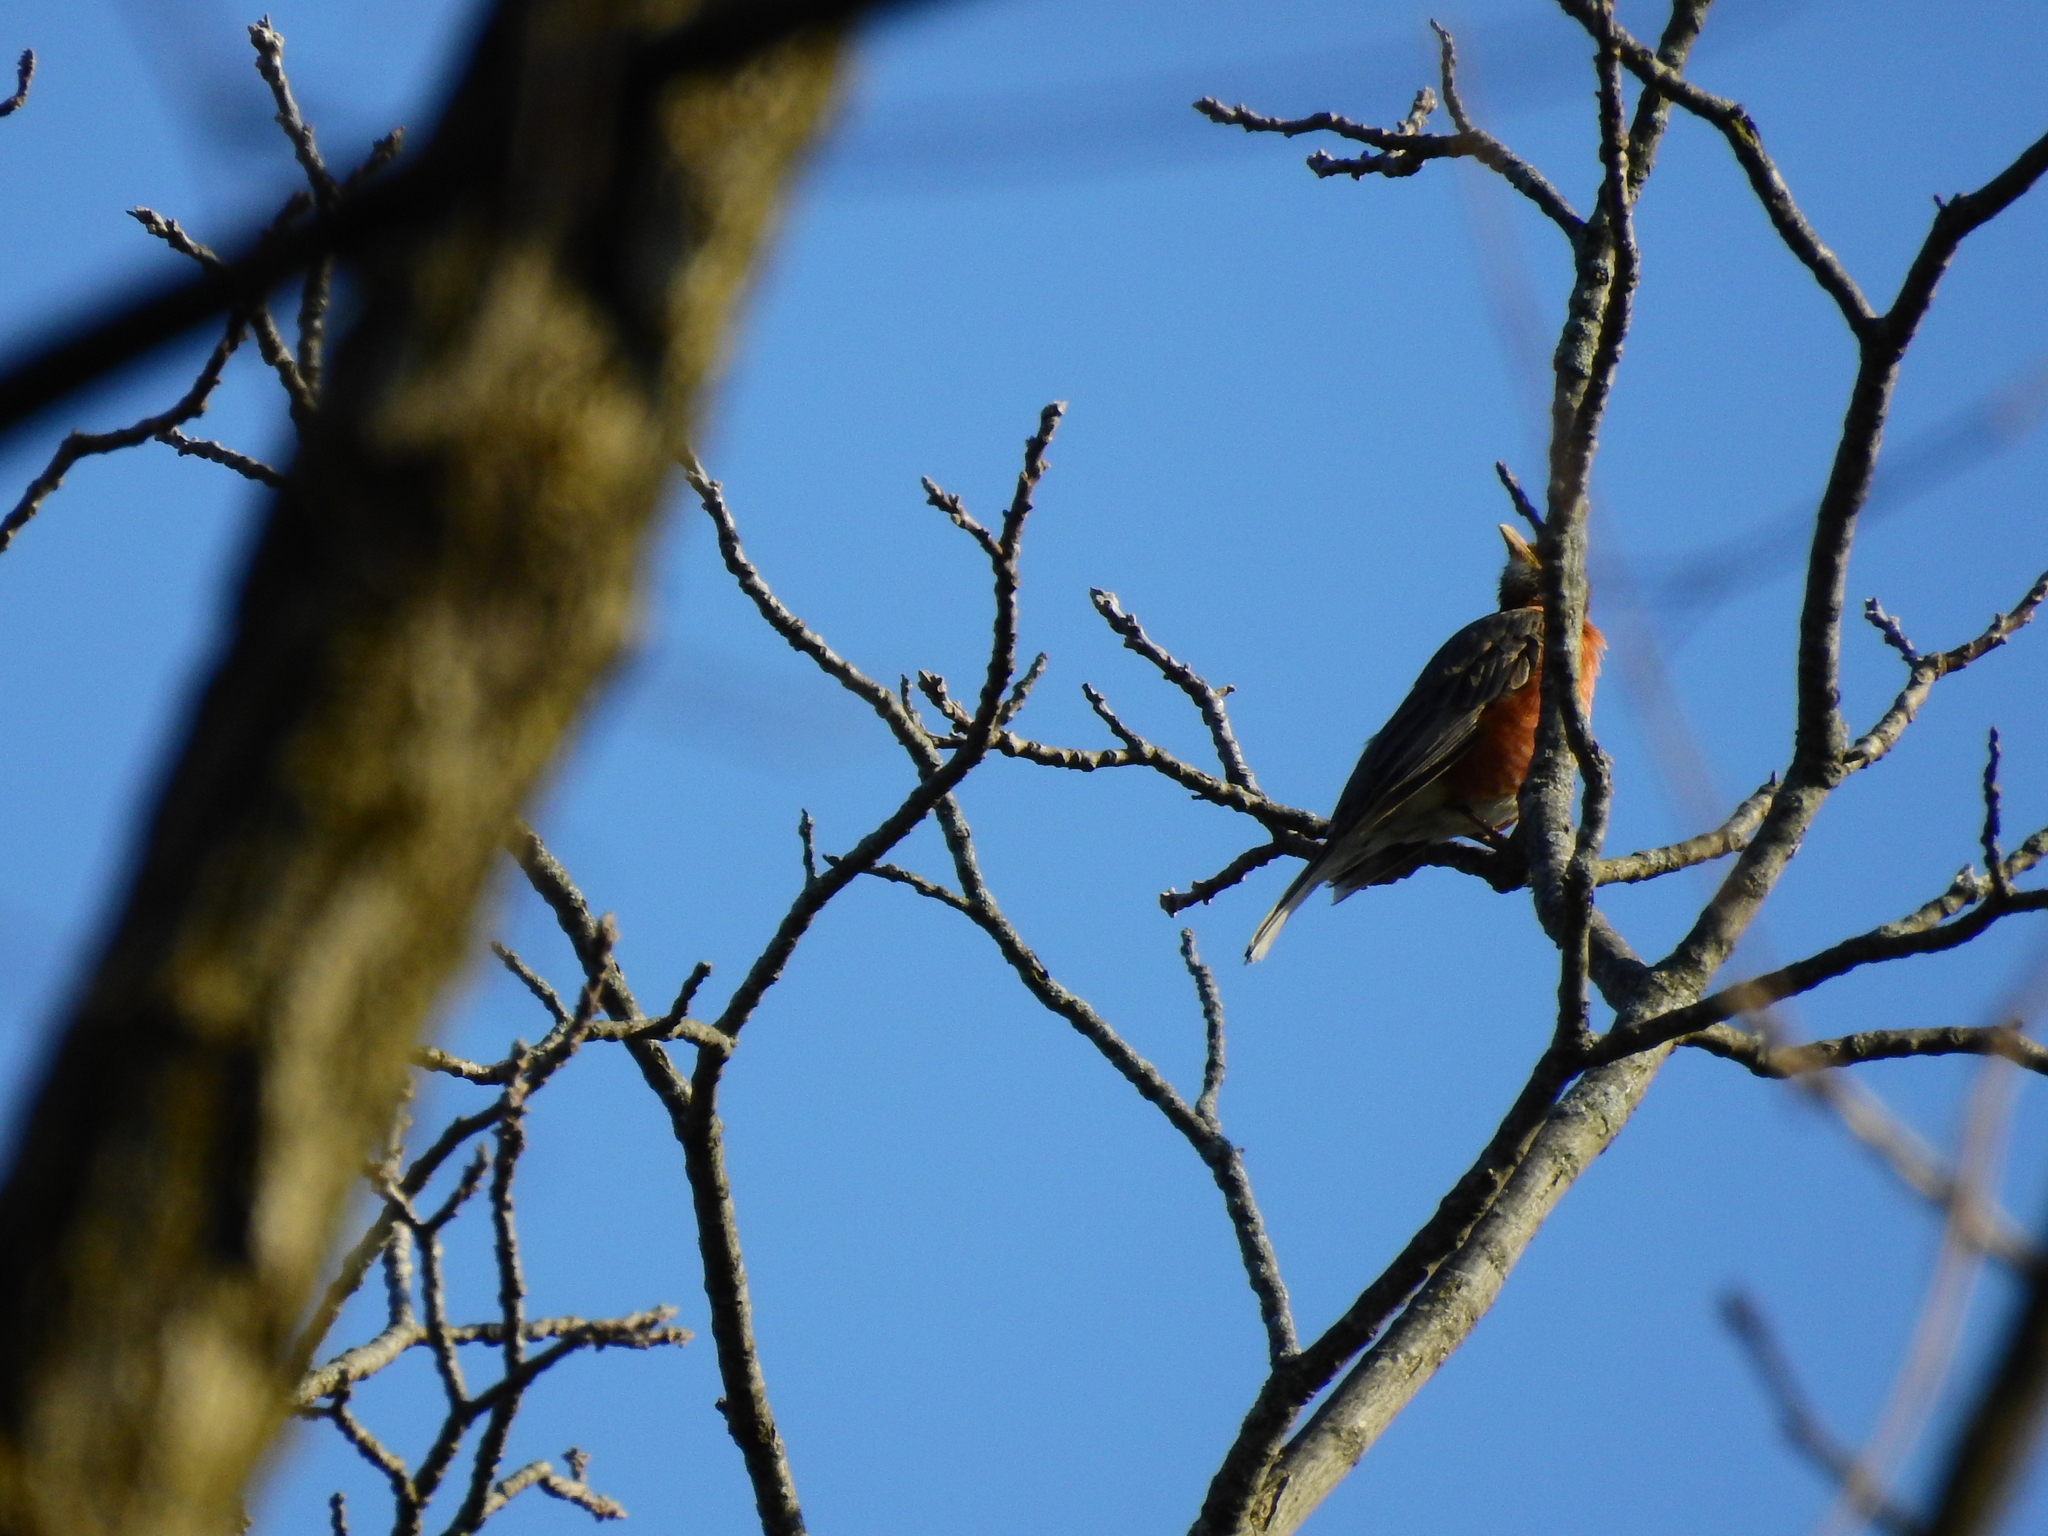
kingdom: Animalia
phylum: Chordata
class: Aves
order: Passeriformes
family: Turdidae
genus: Turdus
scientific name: Turdus migratorius
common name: American robin
